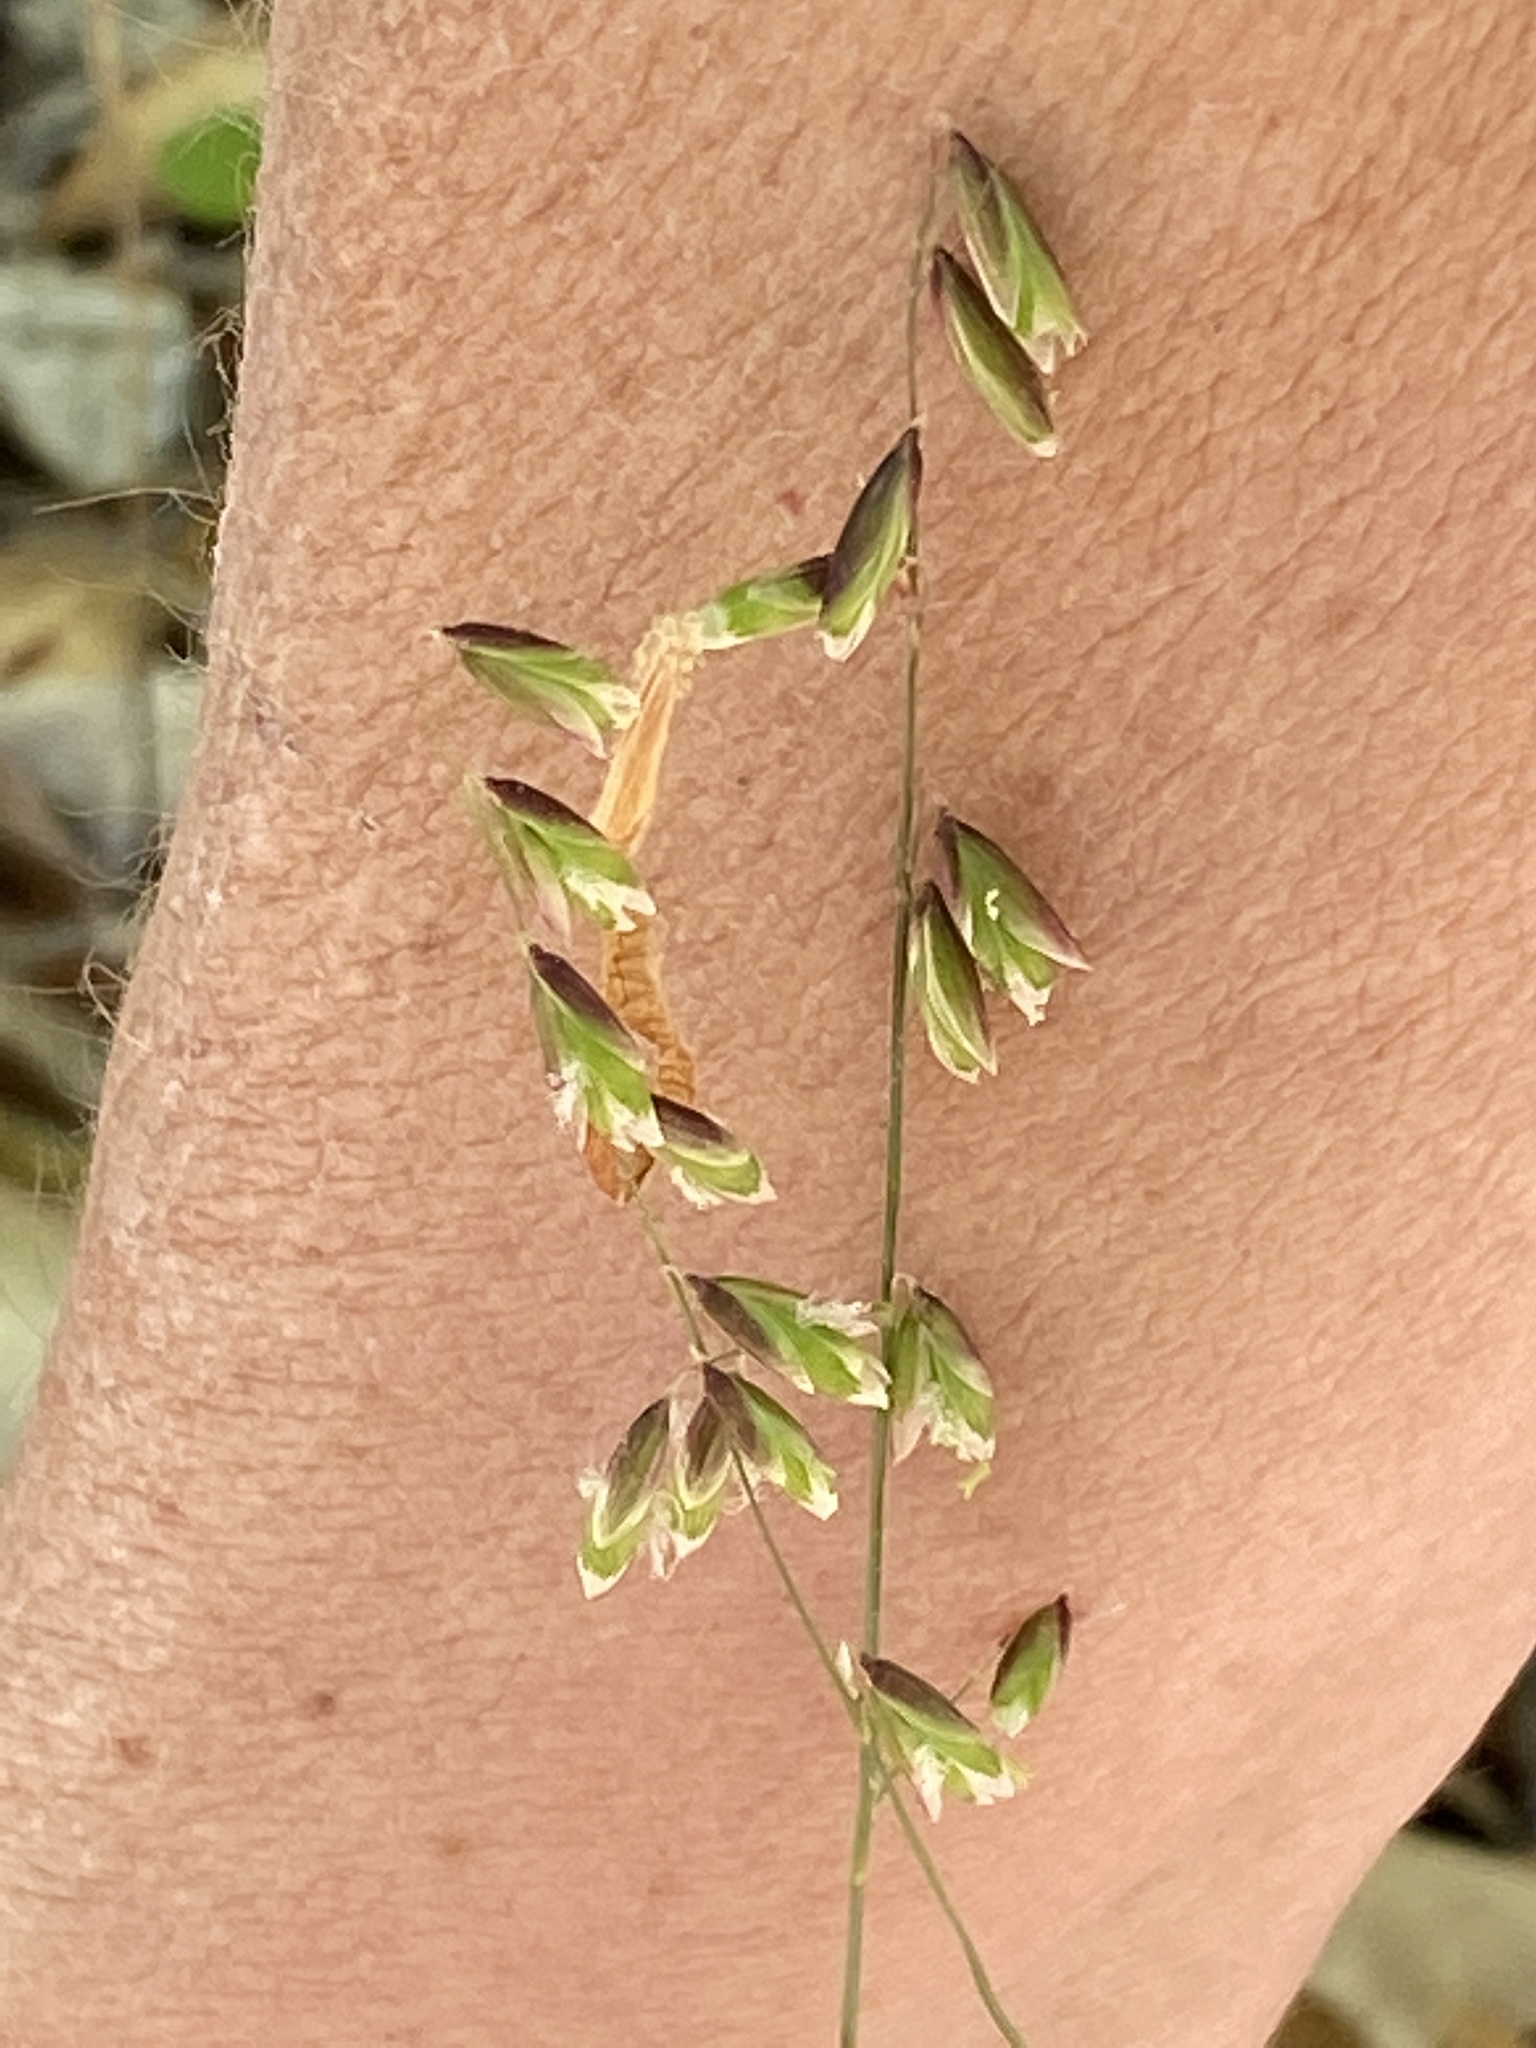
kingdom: Plantae
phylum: Tracheophyta
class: Liliopsida
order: Poales
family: Poaceae
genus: Melica
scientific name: Melica mutica
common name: Two-flower melic
